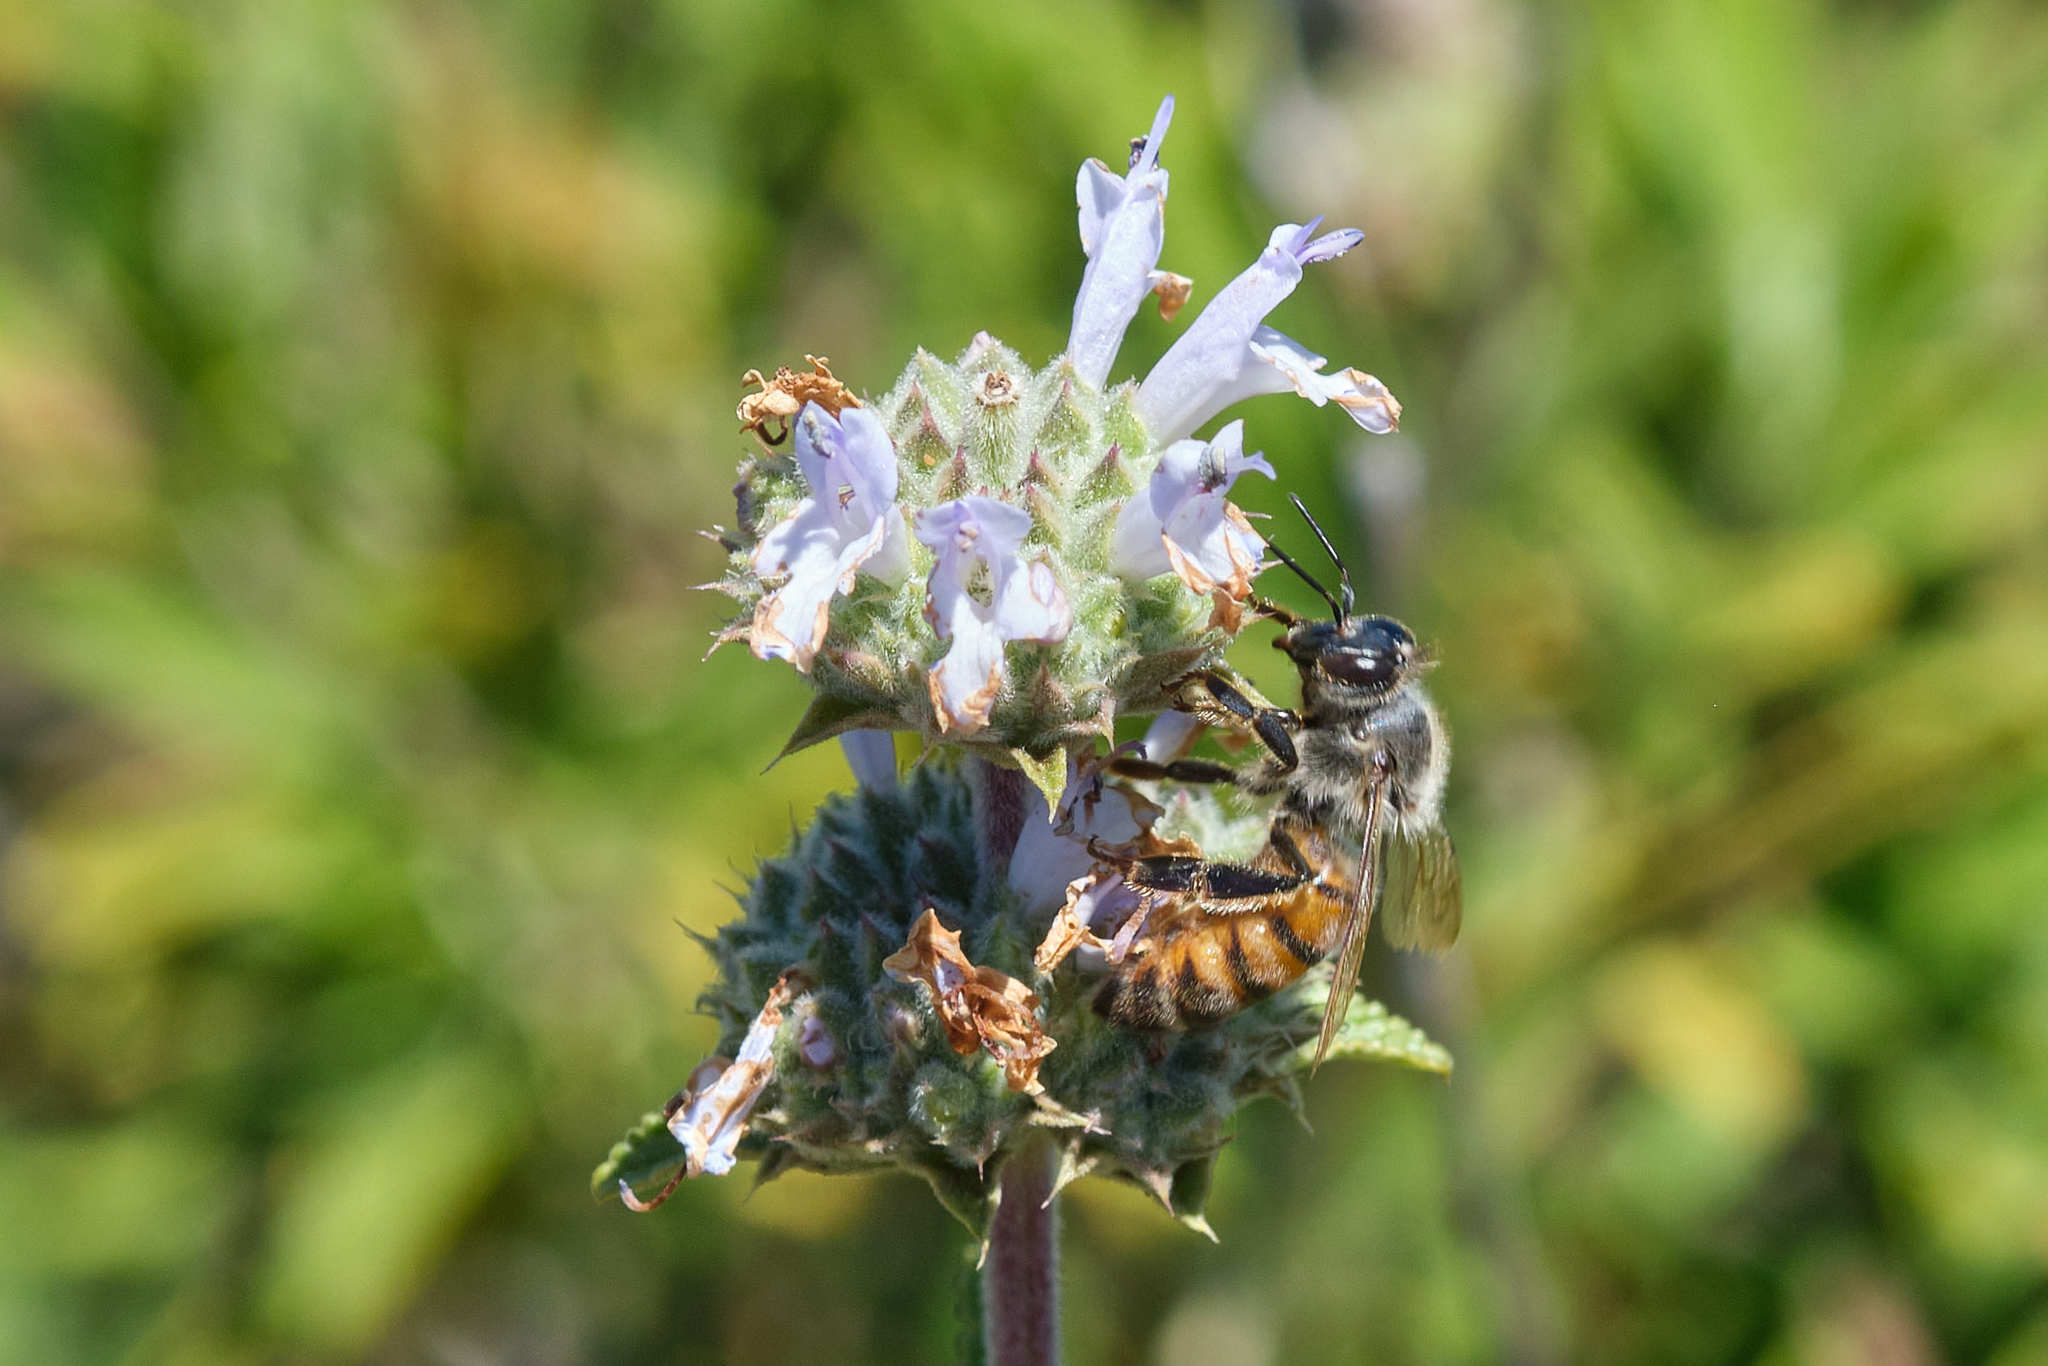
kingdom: Animalia
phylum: Arthropoda
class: Insecta
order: Hymenoptera
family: Apidae
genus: Apis
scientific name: Apis mellifera
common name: Honey bee
